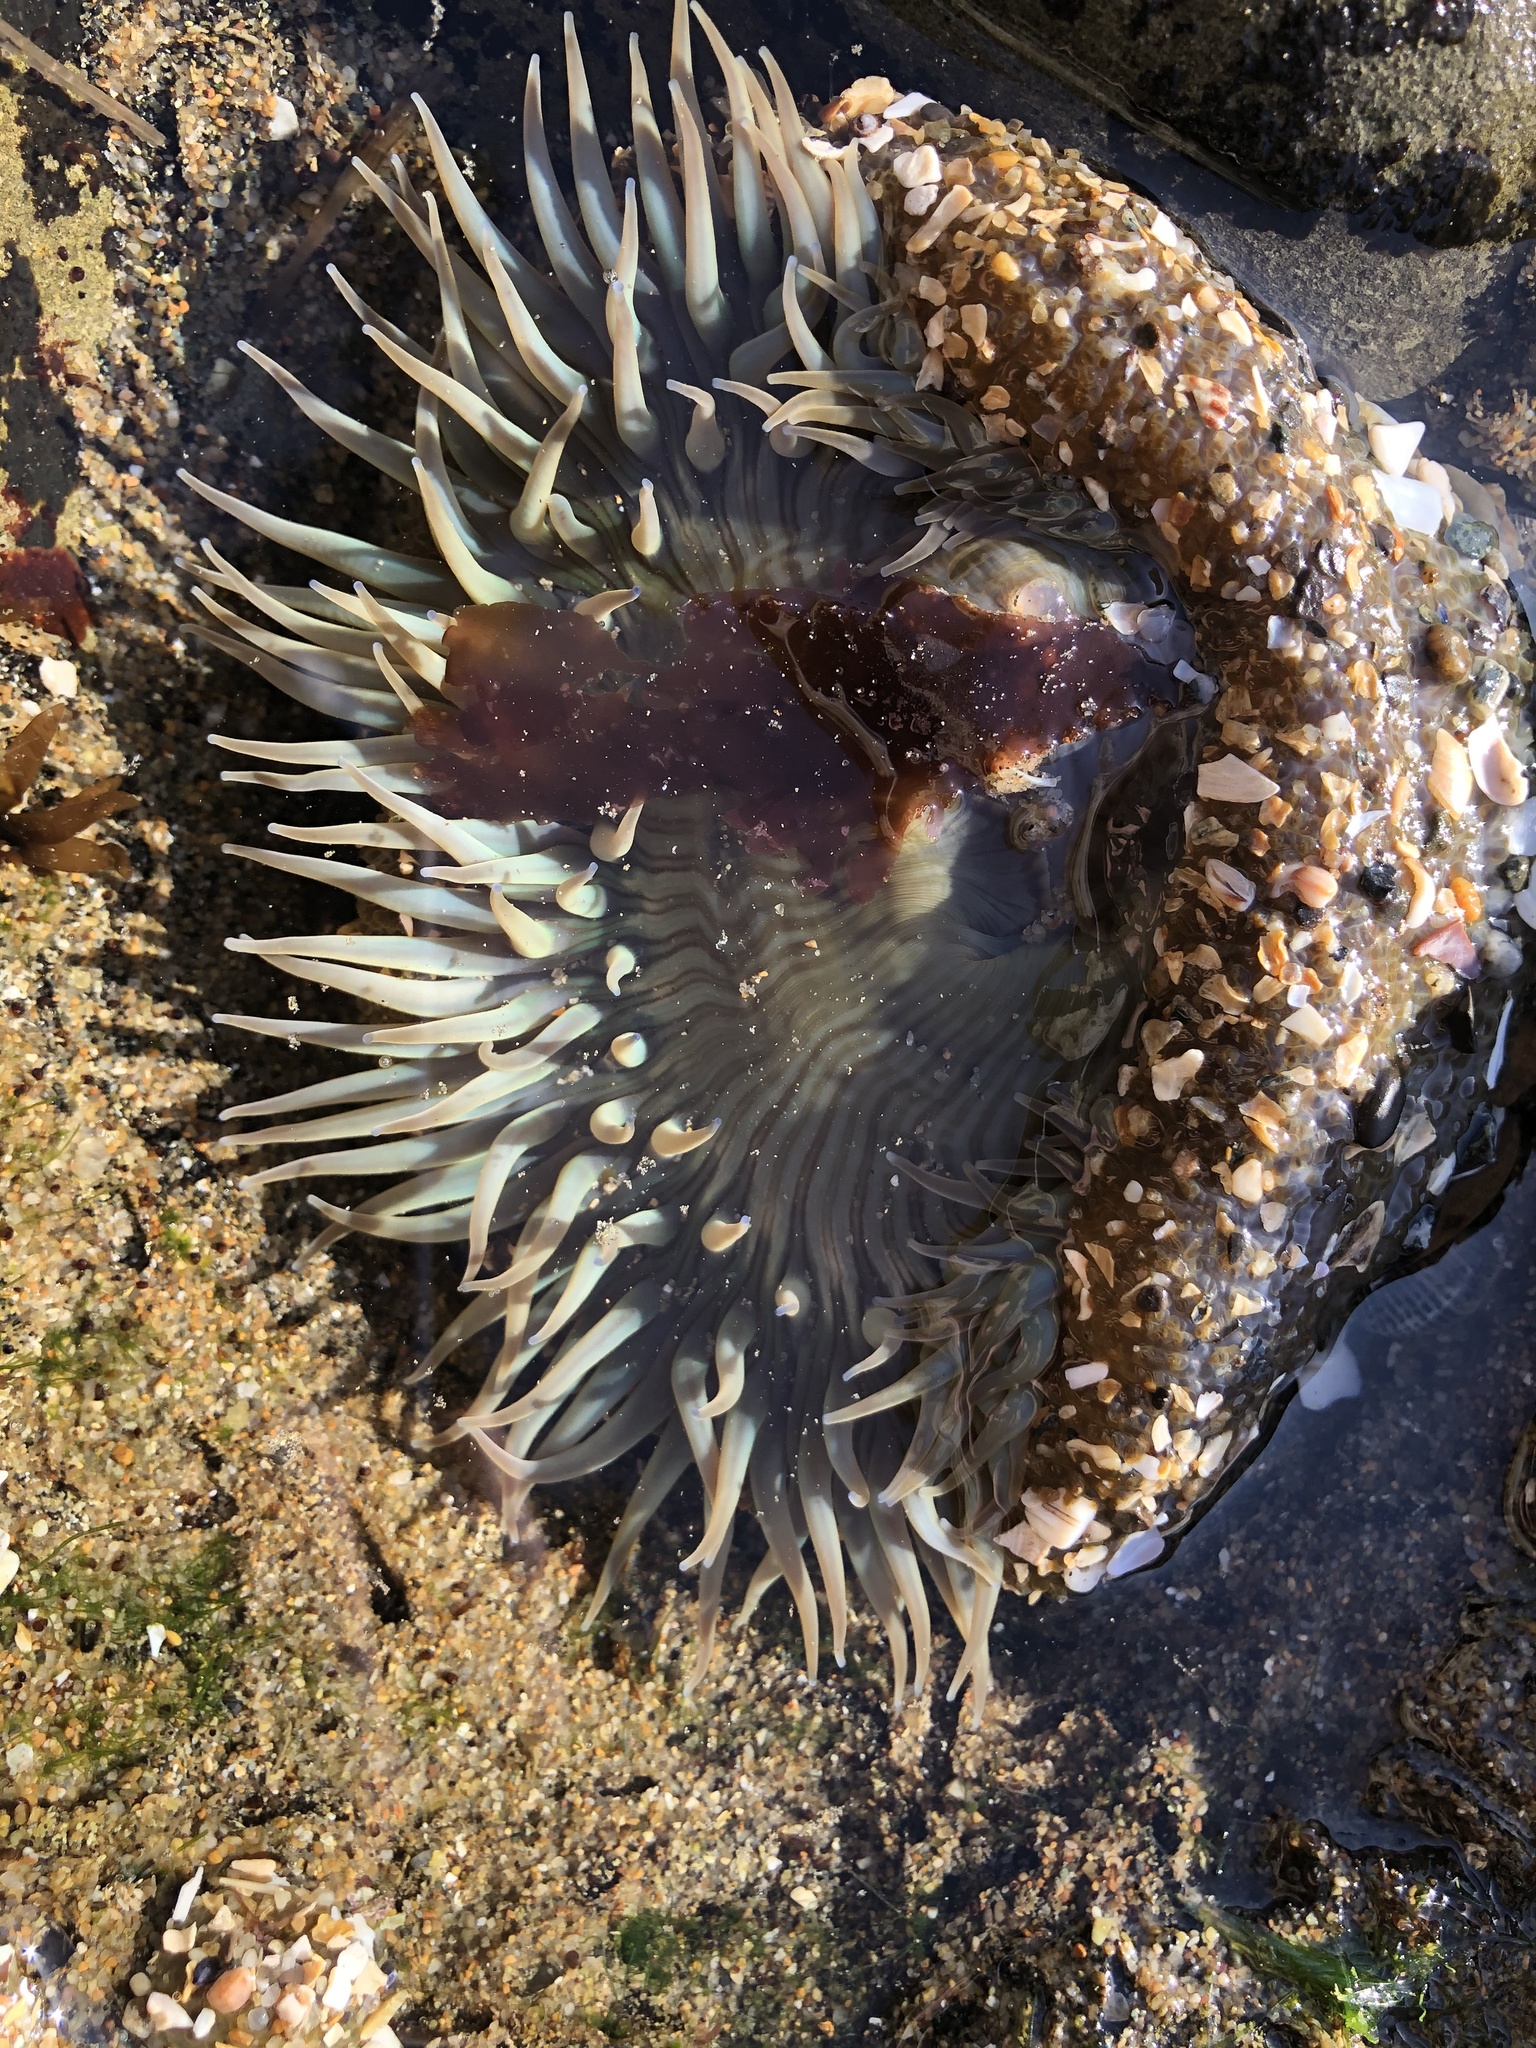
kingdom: Animalia
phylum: Cnidaria
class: Anthozoa
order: Actiniaria
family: Actiniidae
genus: Anthopleura
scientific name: Anthopleura sola
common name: Sun anemone
